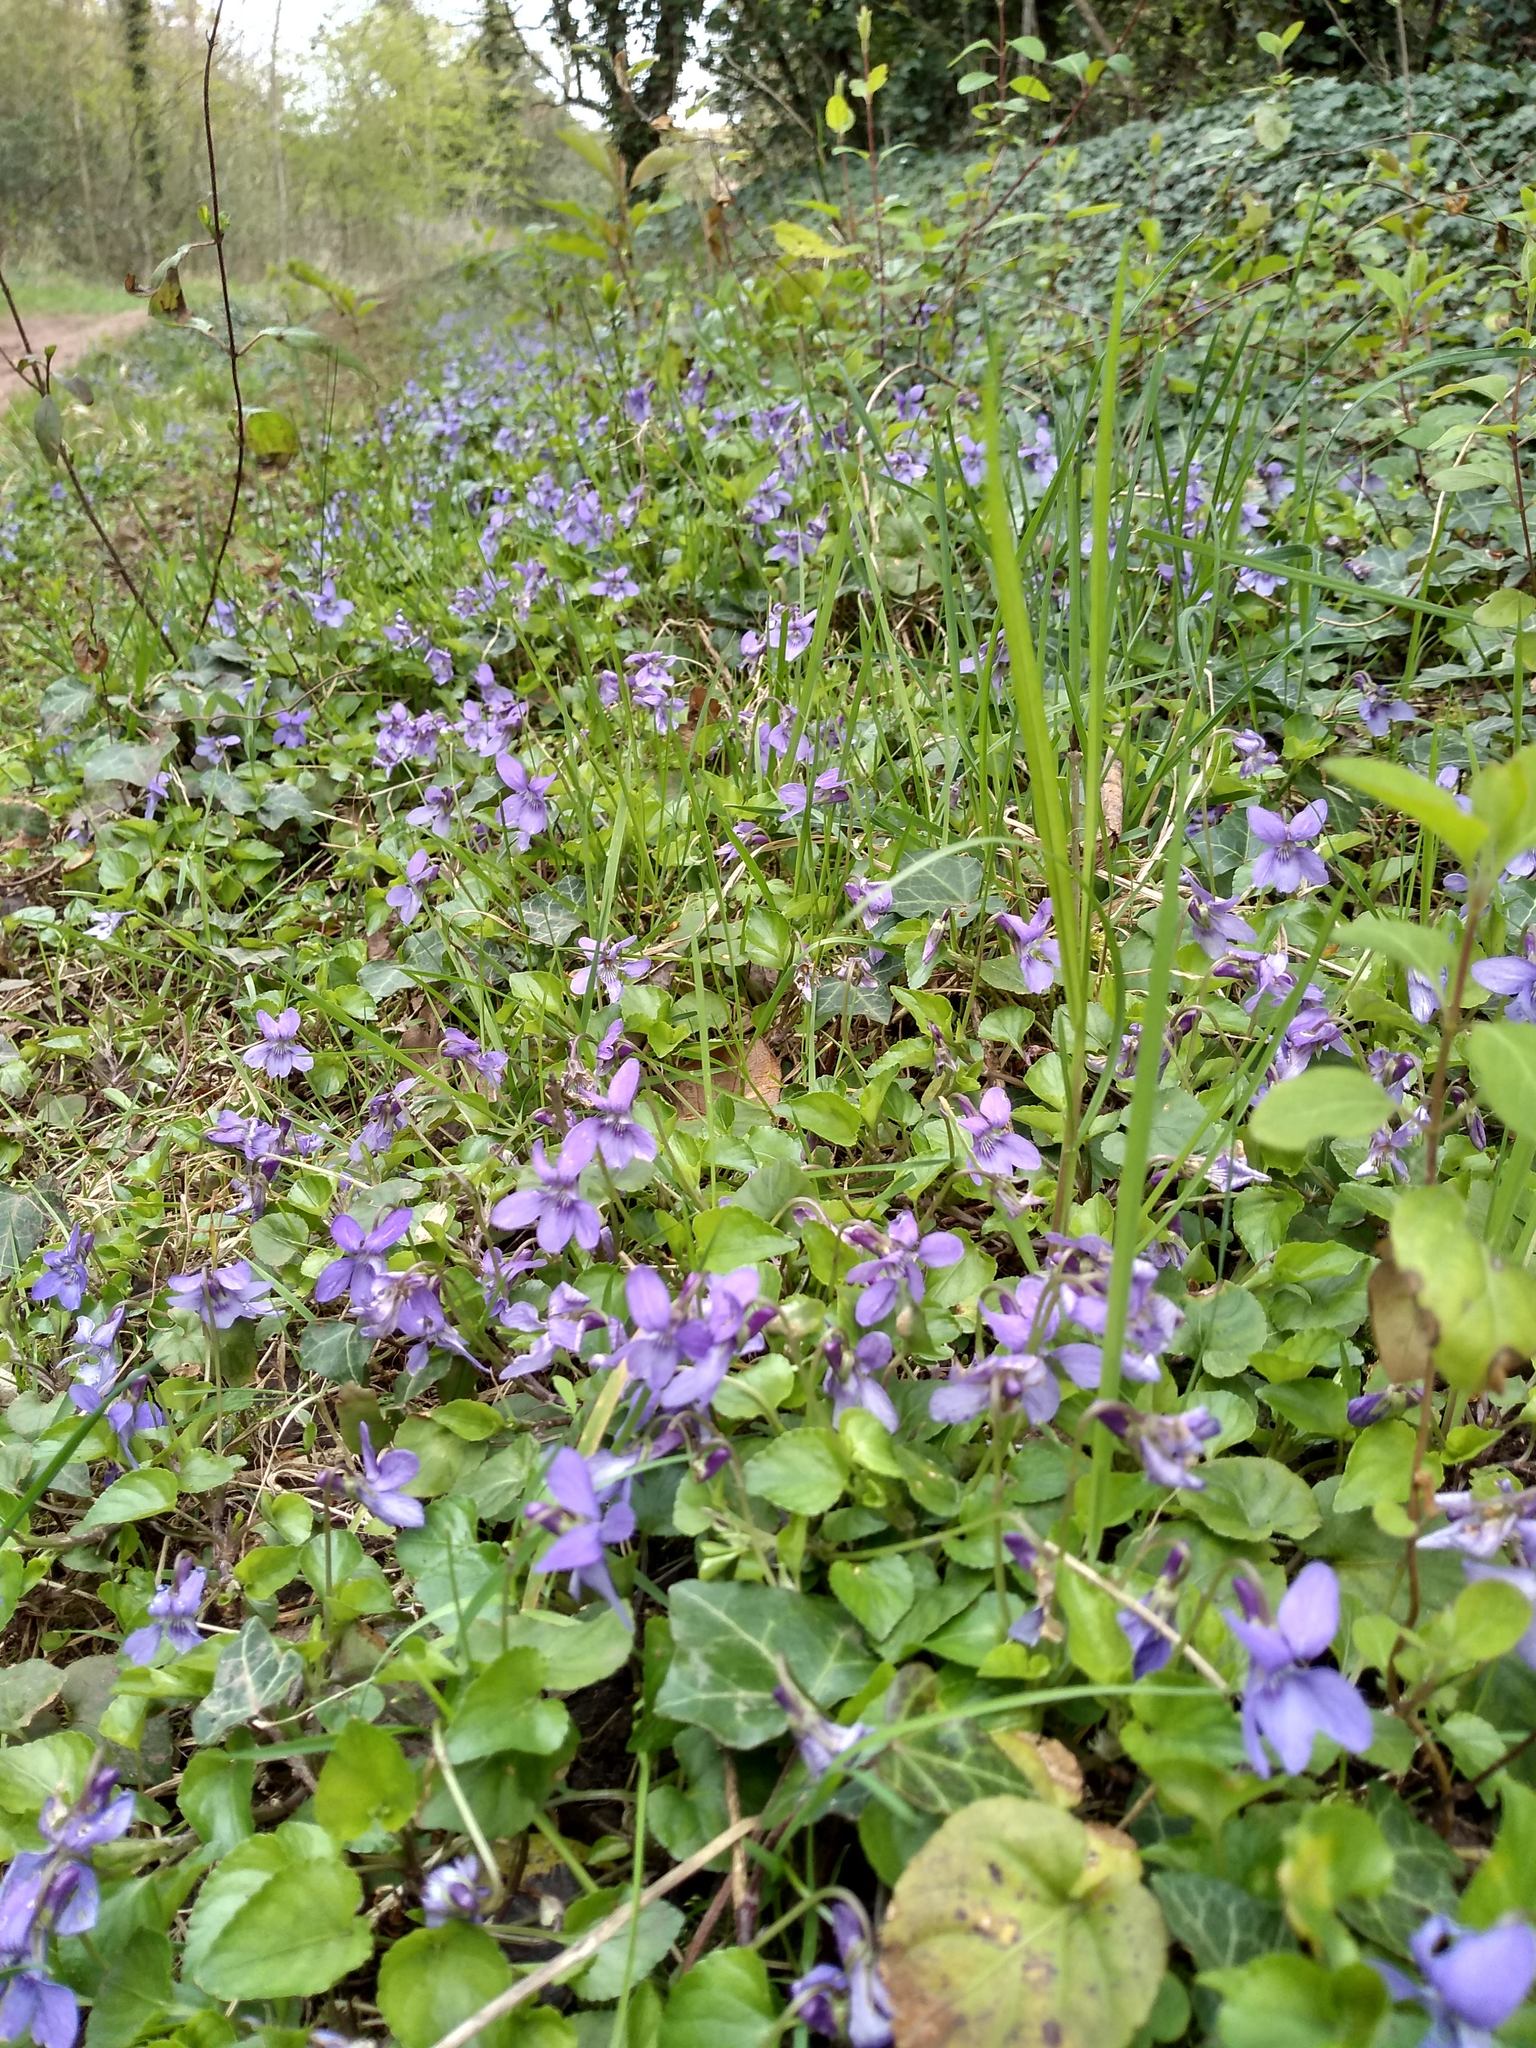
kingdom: Plantae
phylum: Tracheophyta
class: Magnoliopsida
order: Malpighiales
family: Violaceae
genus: Viola
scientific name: Viola reichenbachiana
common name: Early dog-violet
